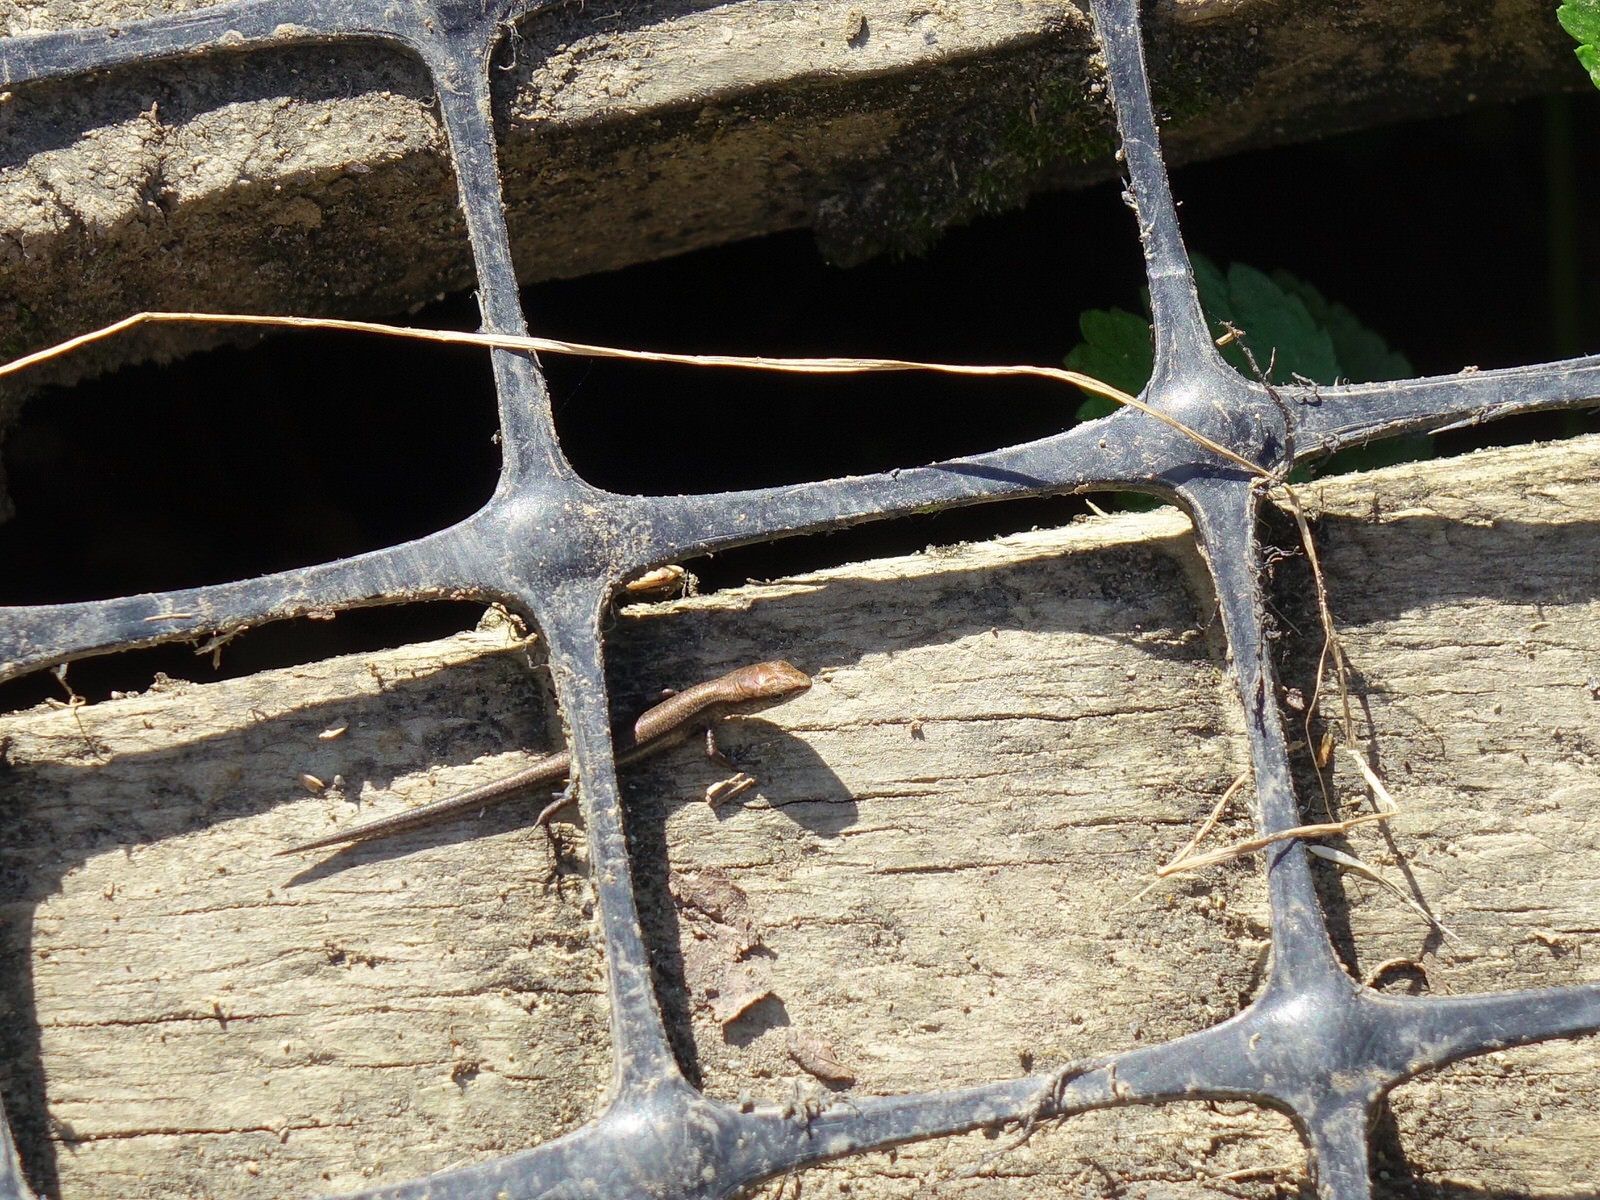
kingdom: Animalia
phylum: Chordata
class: Squamata
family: Scincidae
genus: Lampropholis
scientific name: Lampropholis delicata
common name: Plague skink
